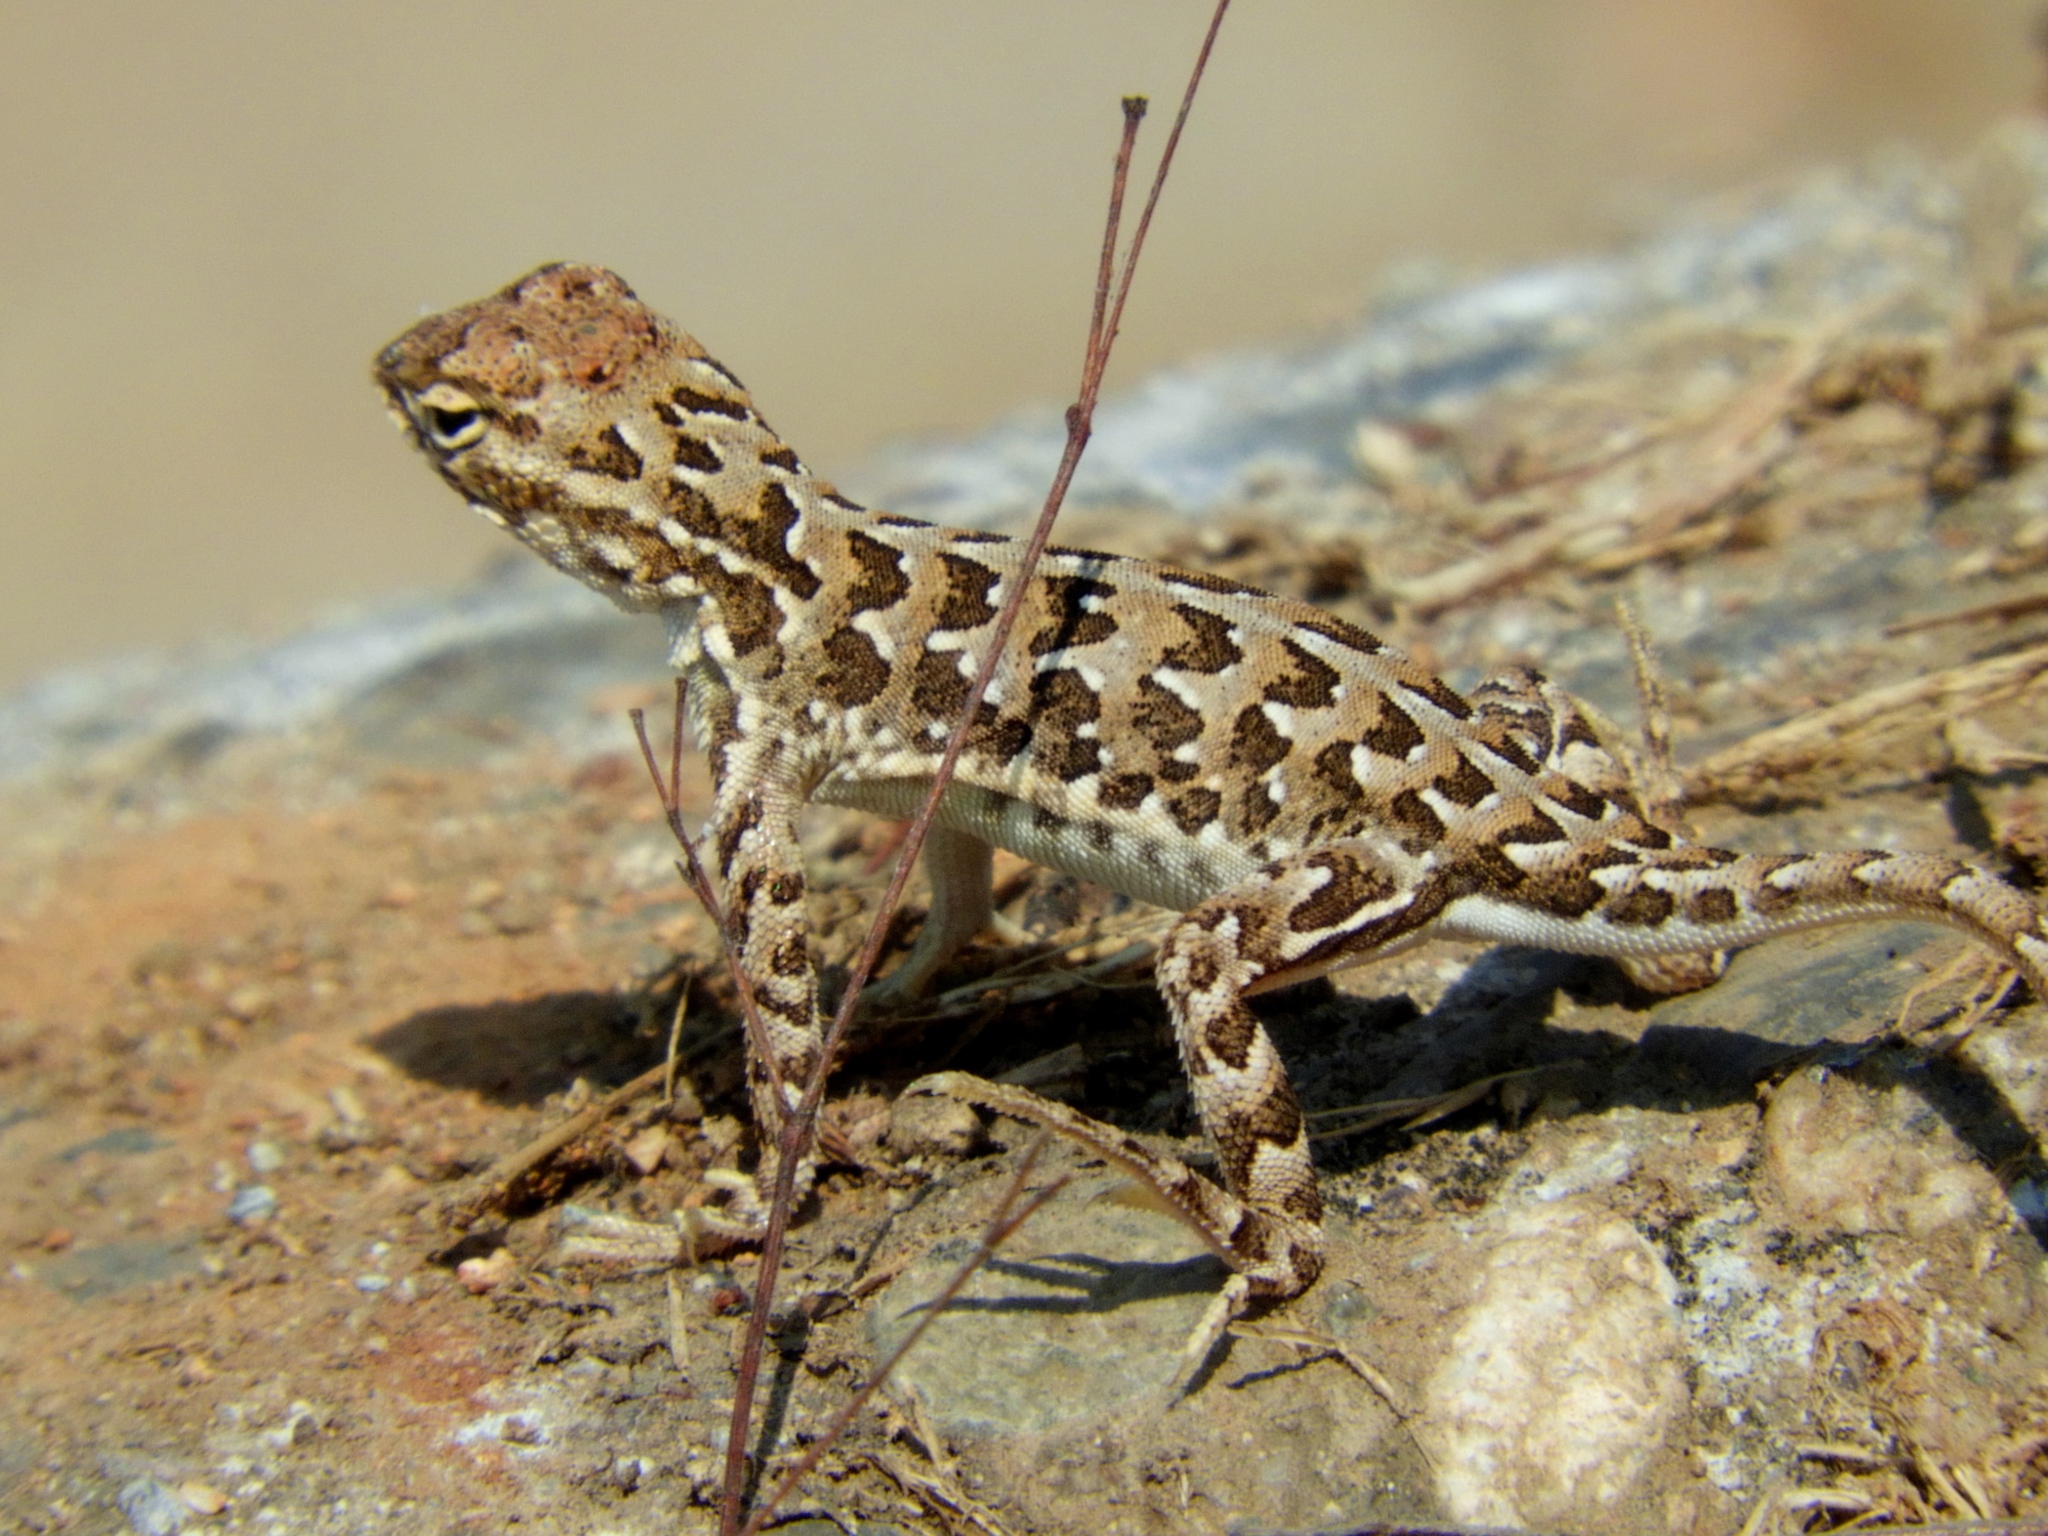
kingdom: Animalia
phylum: Chordata
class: Squamata
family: Phrynosomatidae
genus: Holbrookia
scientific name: Holbrookia elegans
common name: Elegant earless lizard
